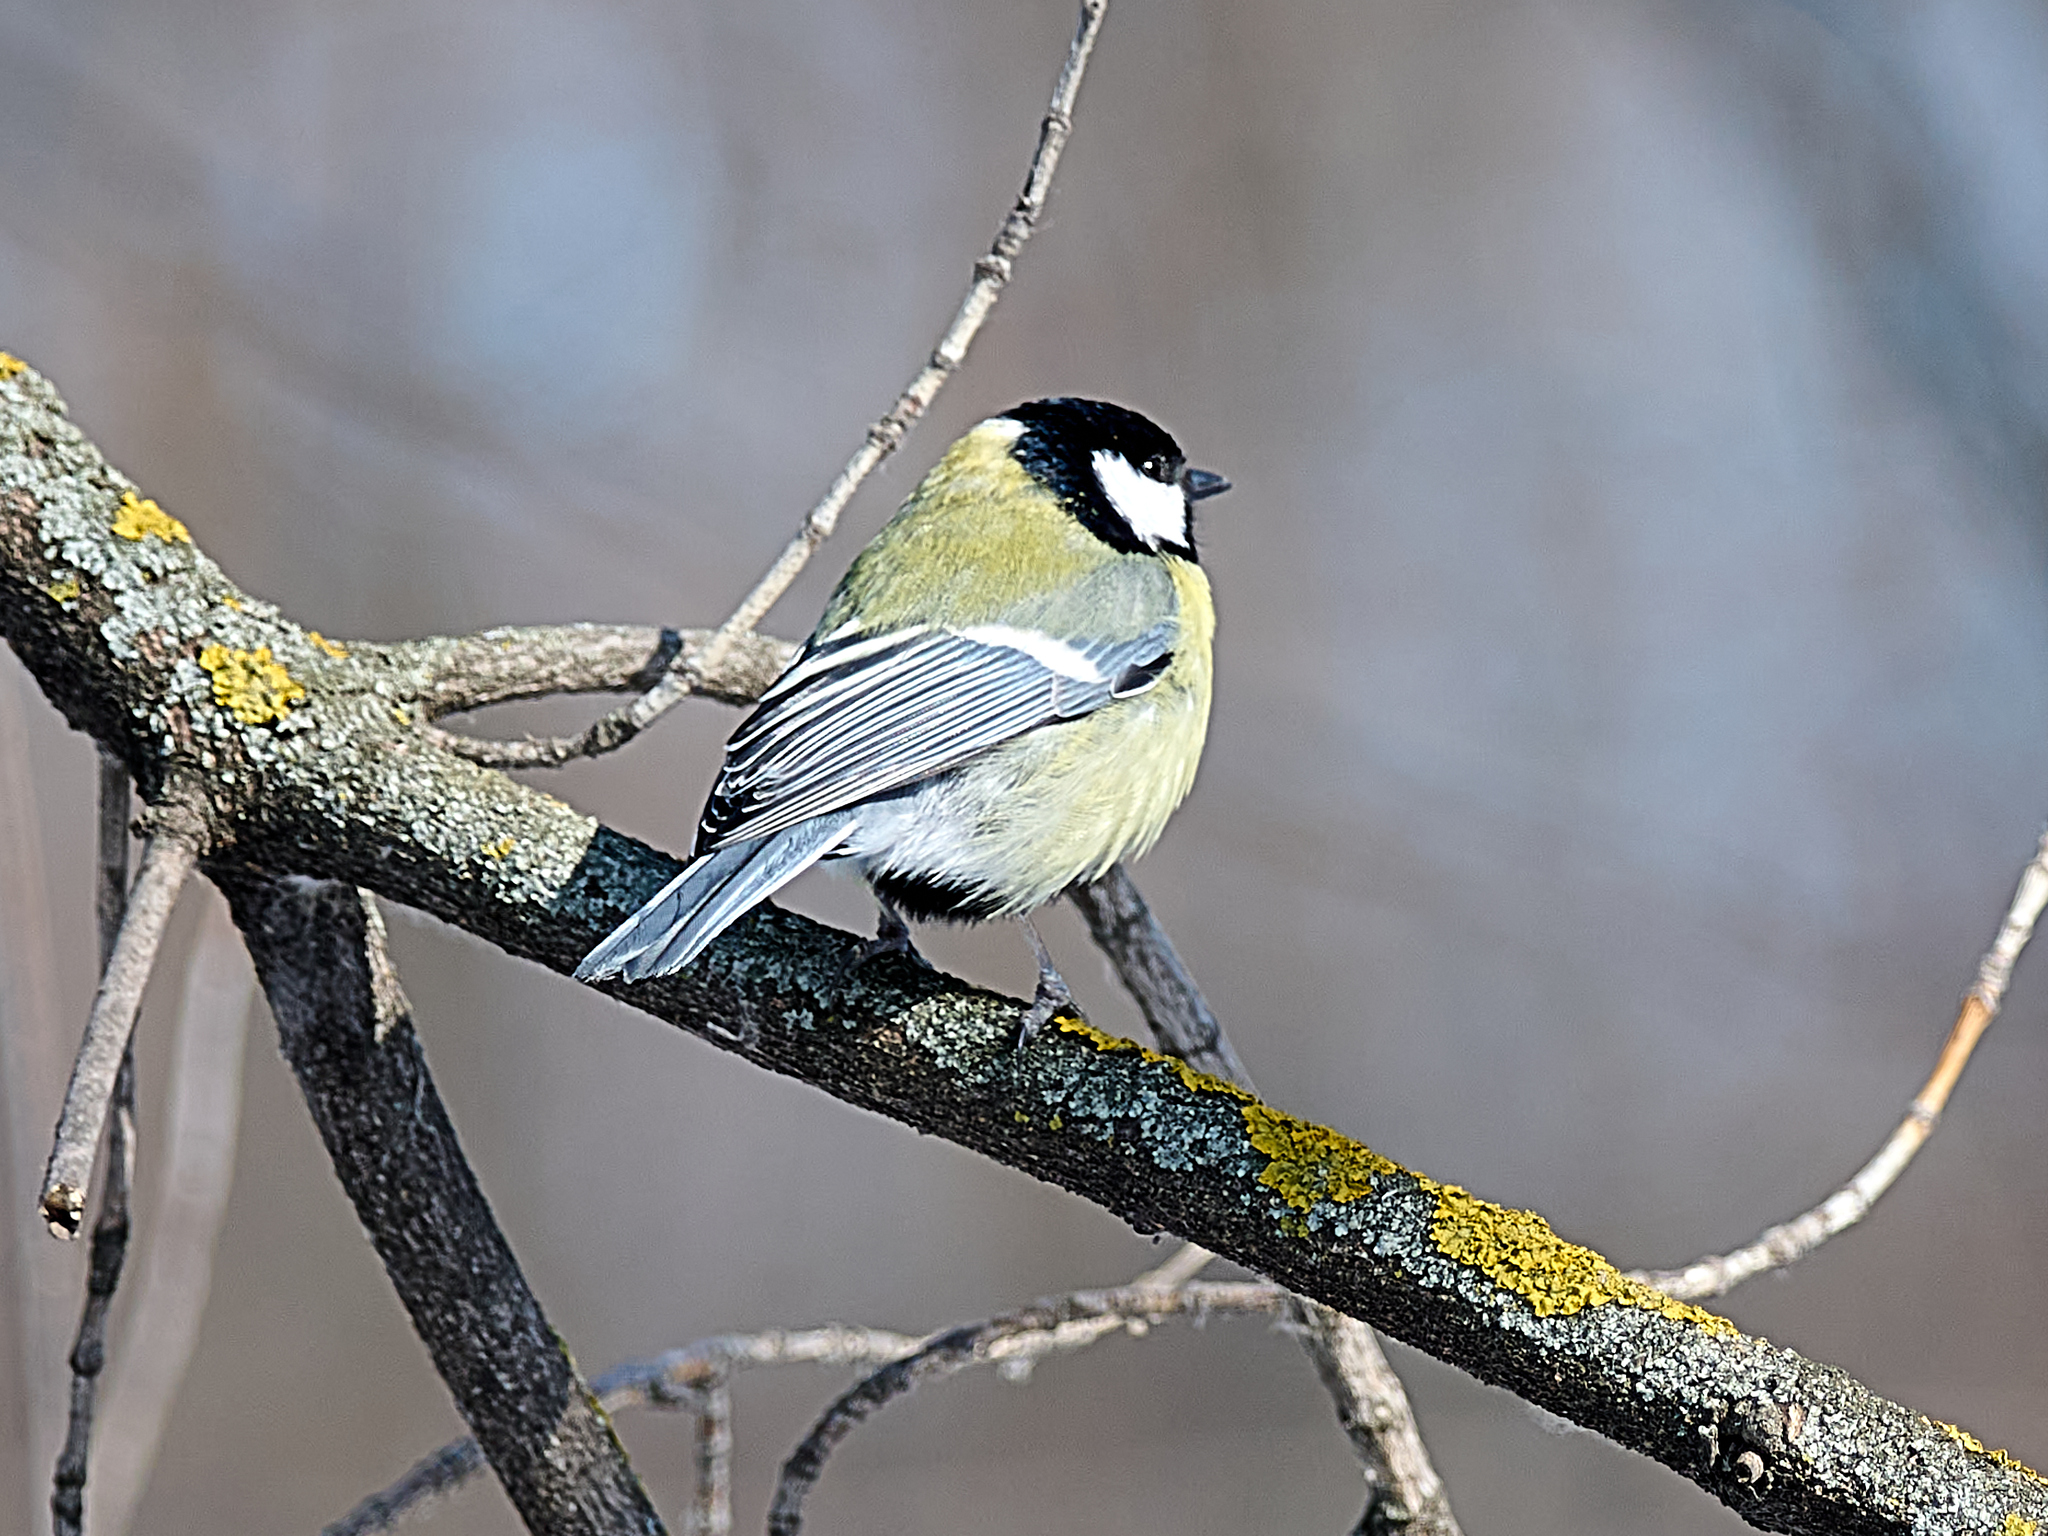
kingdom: Animalia
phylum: Chordata
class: Aves
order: Passeriformes
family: Paridae
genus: Parus
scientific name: Parus major
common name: Great tit
